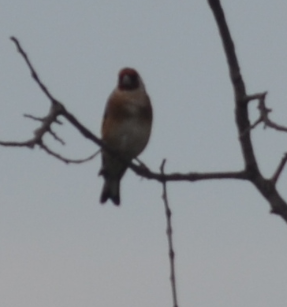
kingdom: Animalia
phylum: Chordata
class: Aves
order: Passeriformes
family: Fringillidae
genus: Carduelis
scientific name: Carduelis carduelis
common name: European goldfinch
